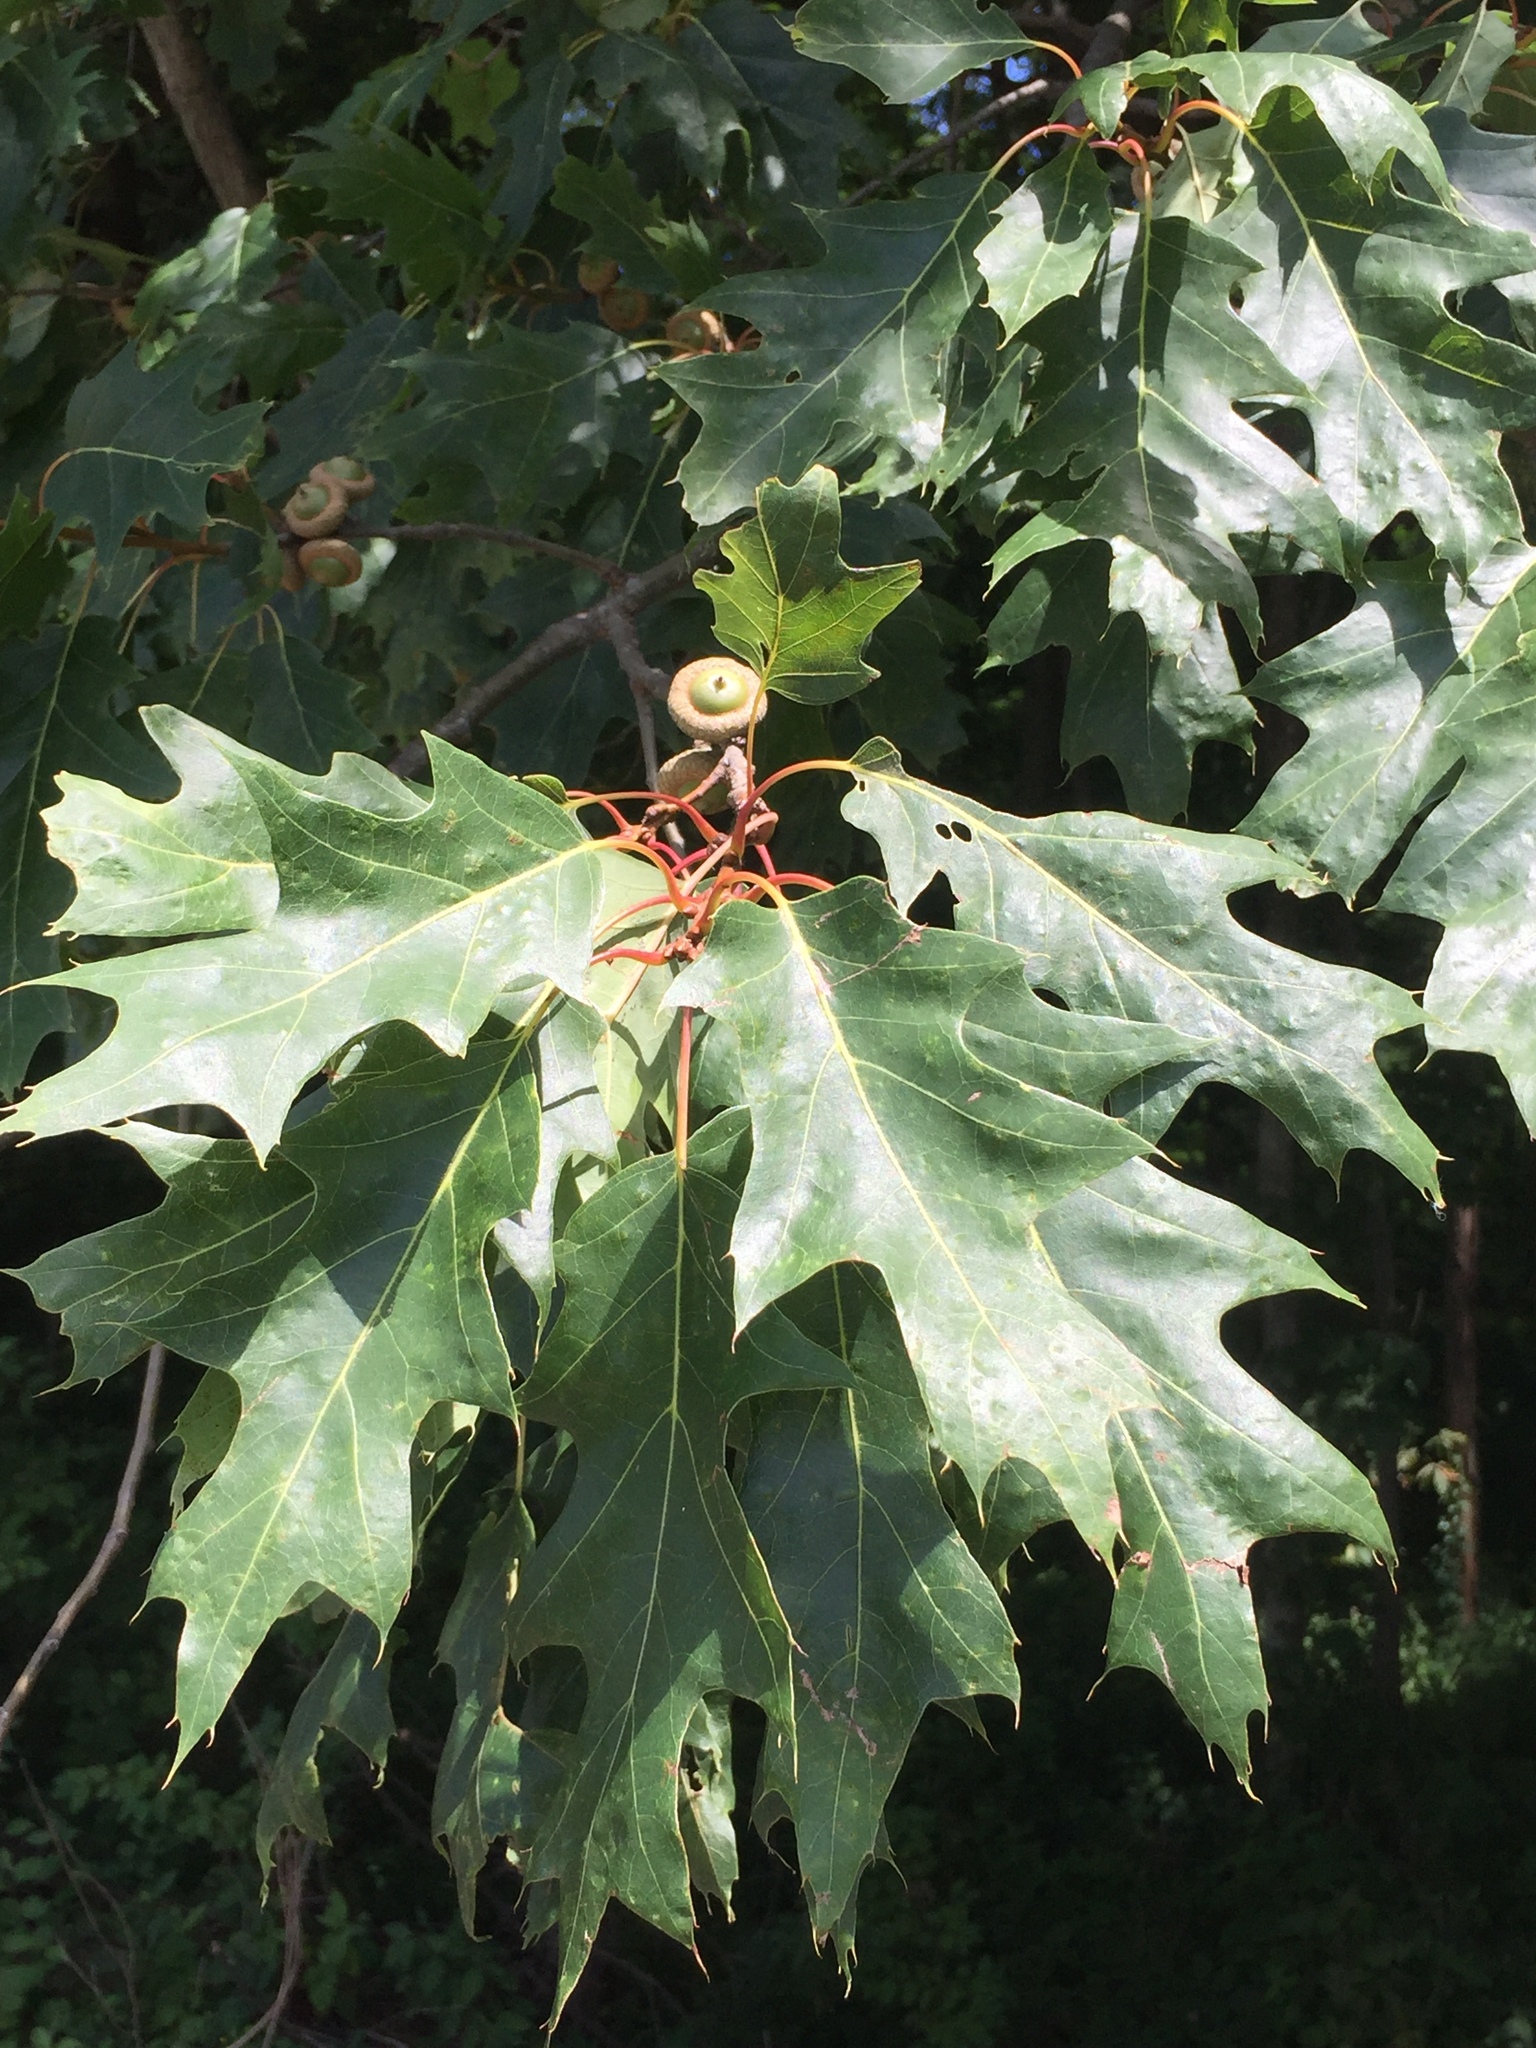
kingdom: Plantae
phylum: Tracheophyta
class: Magnoliopsida
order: Fagales
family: Fagaceae
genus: Quercus
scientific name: Quercus rubra
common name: Red oak
